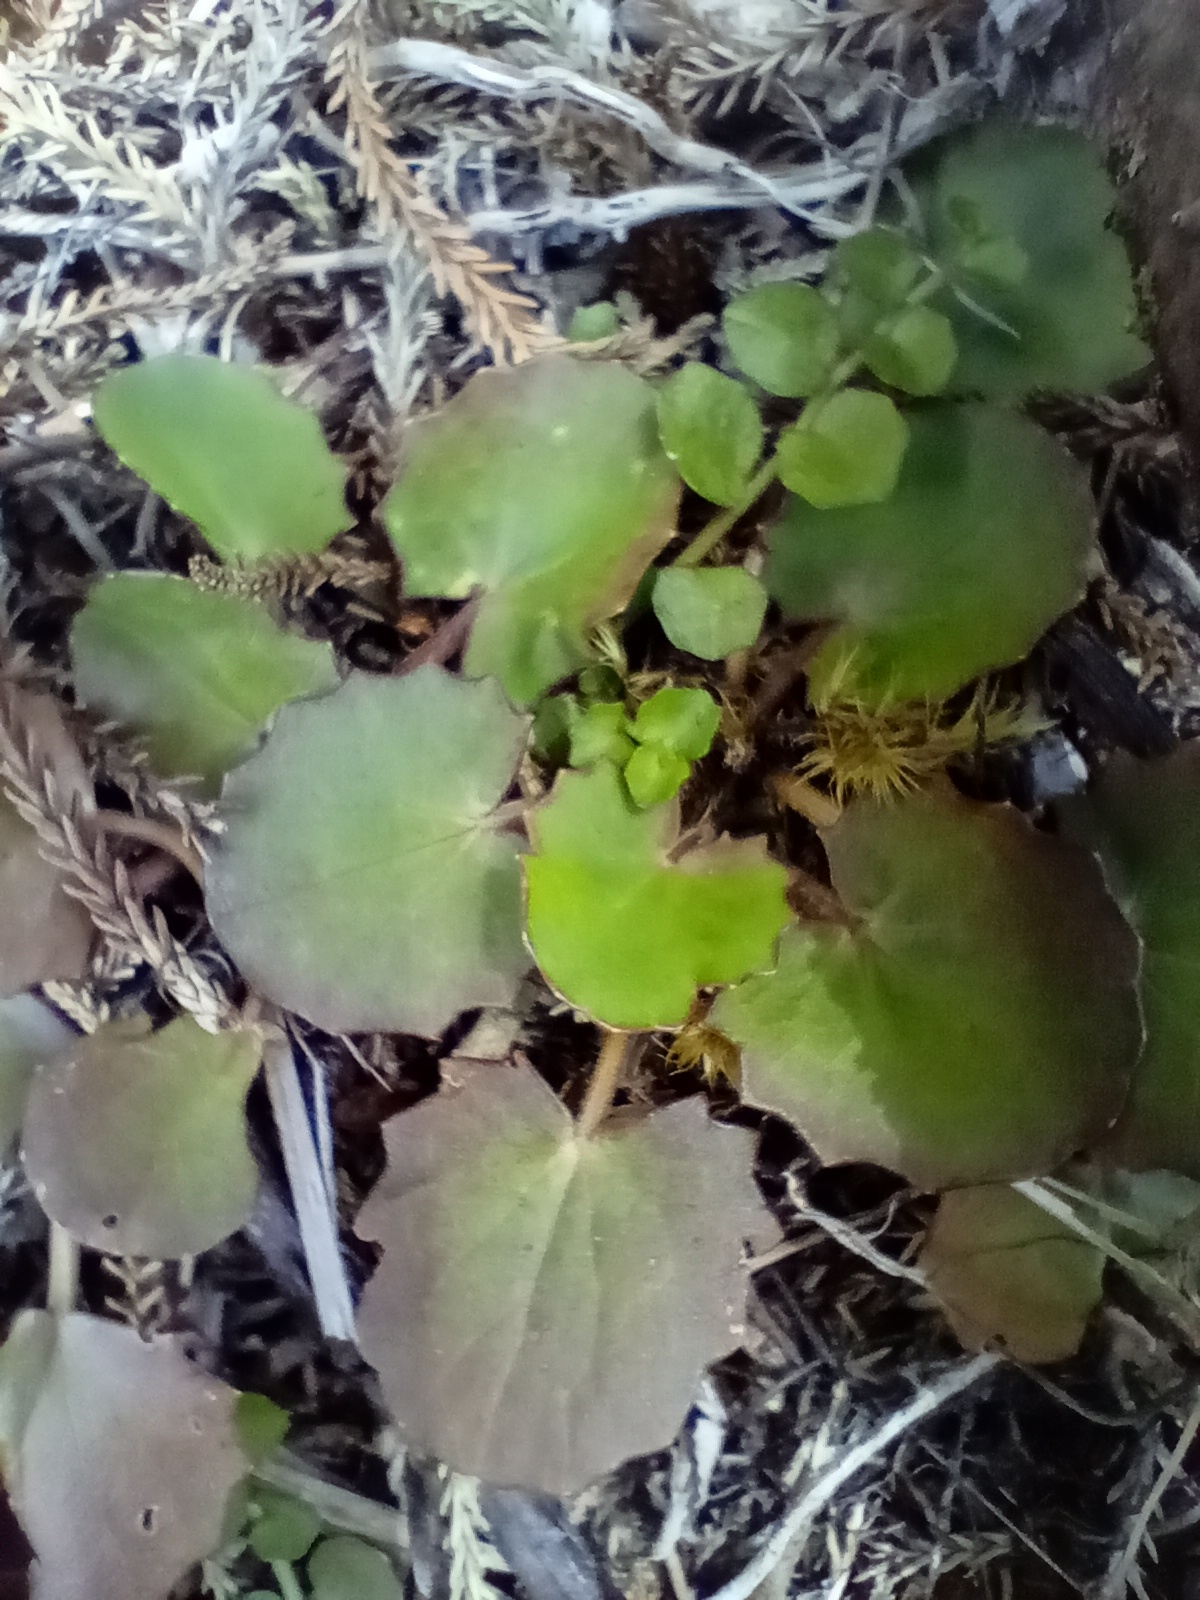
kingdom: Plantae
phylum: Tracheophyta
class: Magnoliopsida
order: Apiales
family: Apiaceae
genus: Centella
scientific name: Centella uniflora
